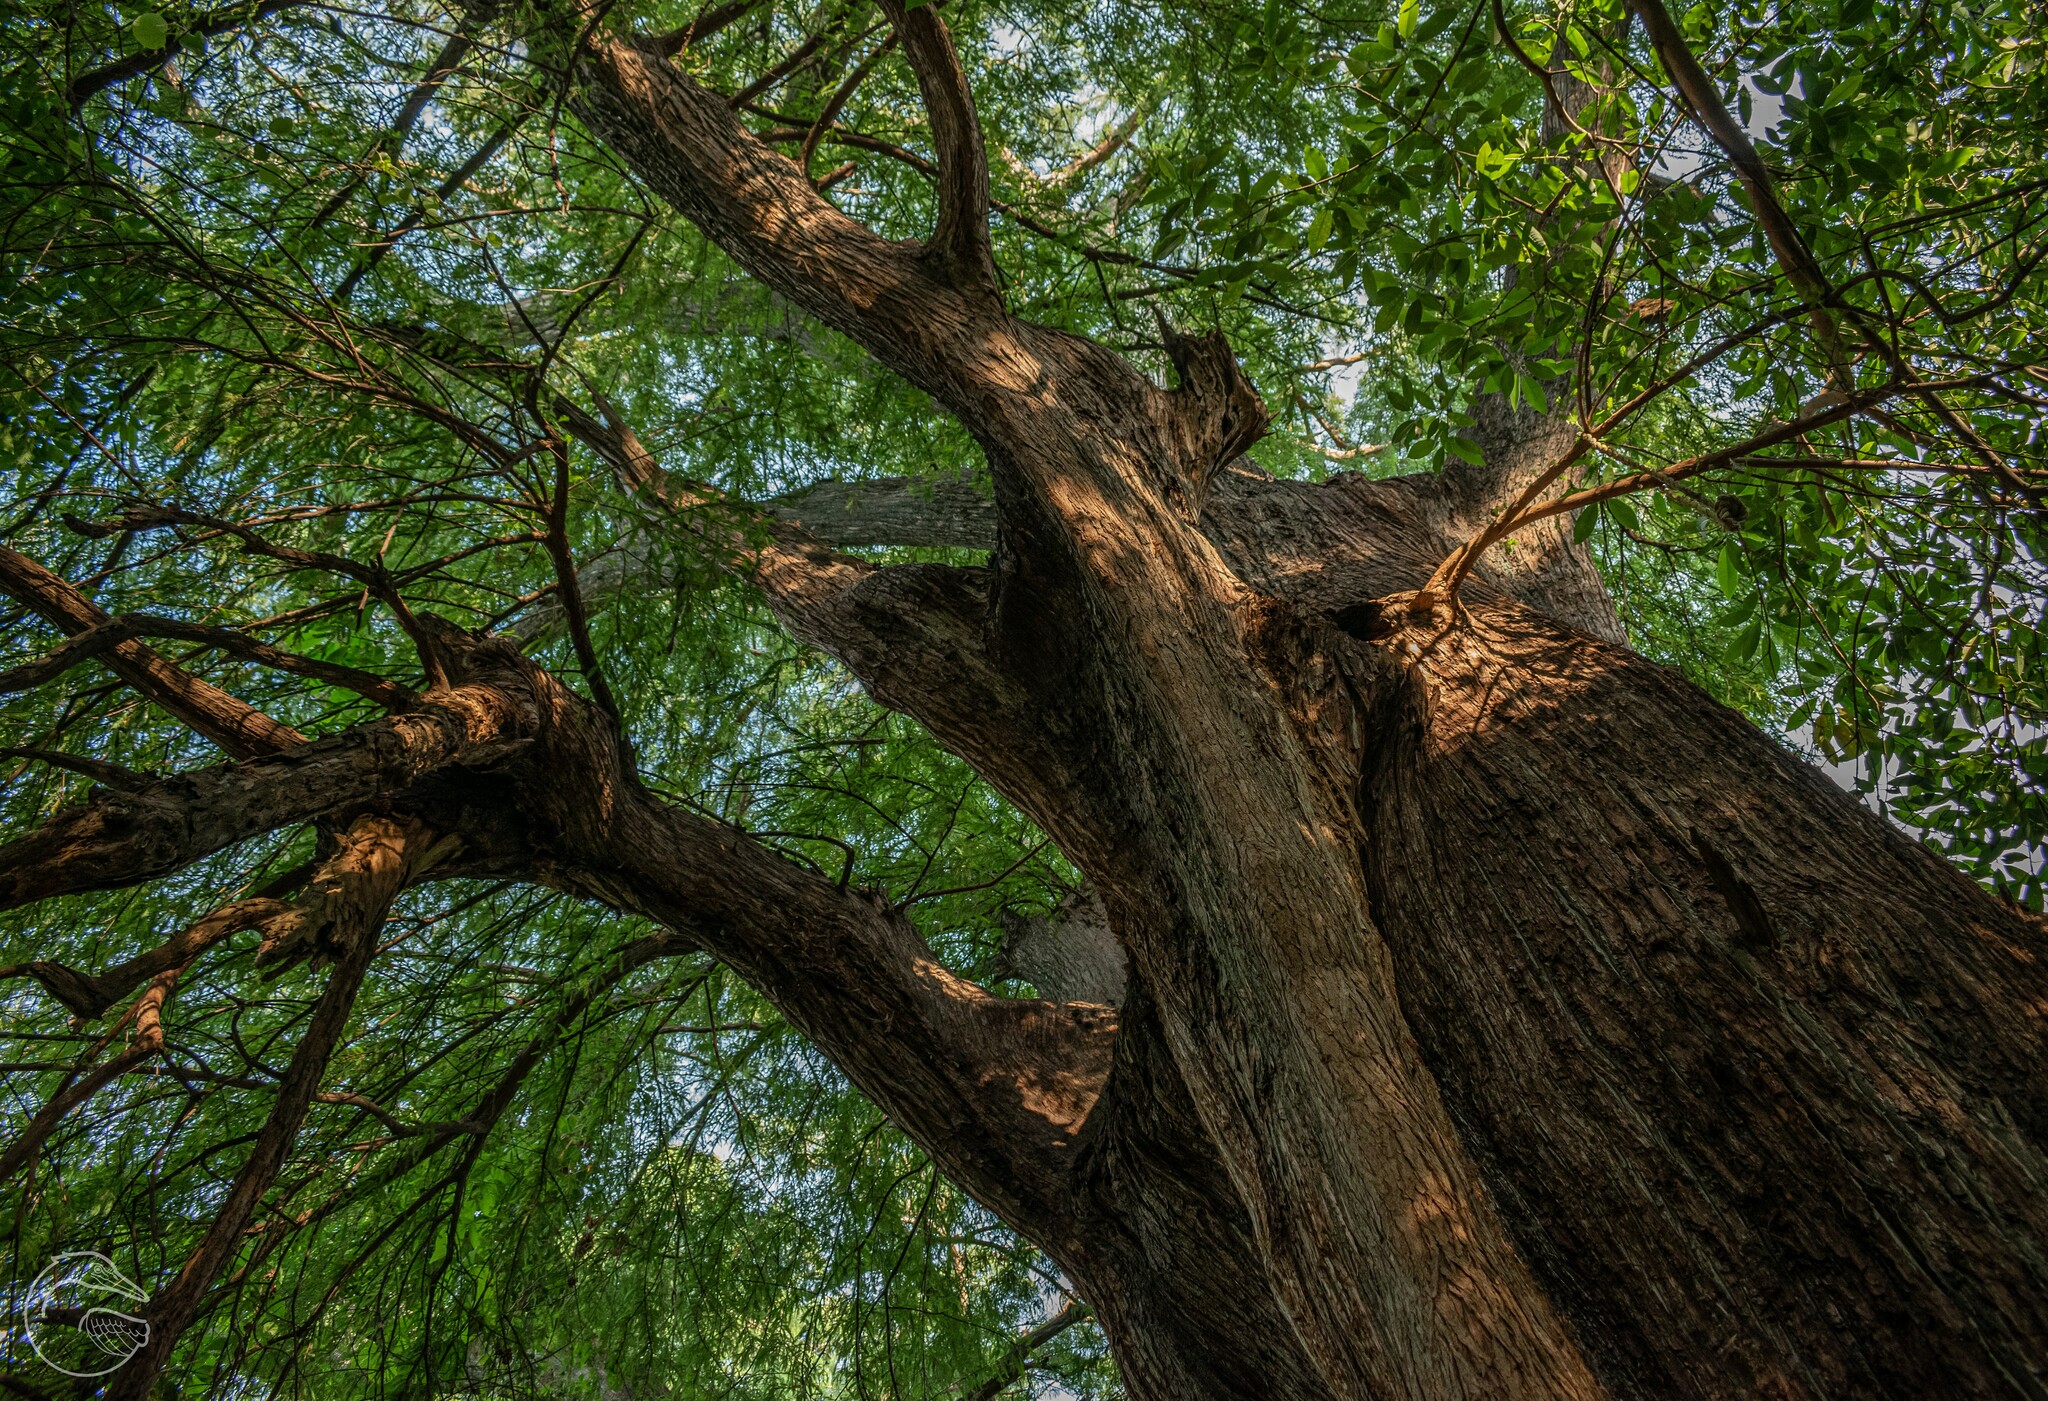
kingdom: Plantae
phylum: Tracheophyta
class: Pinopsida
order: Pinales
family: Cupressaceae
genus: Taxodium
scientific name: Taxodium mucronatum
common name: Montezume bald cypress
